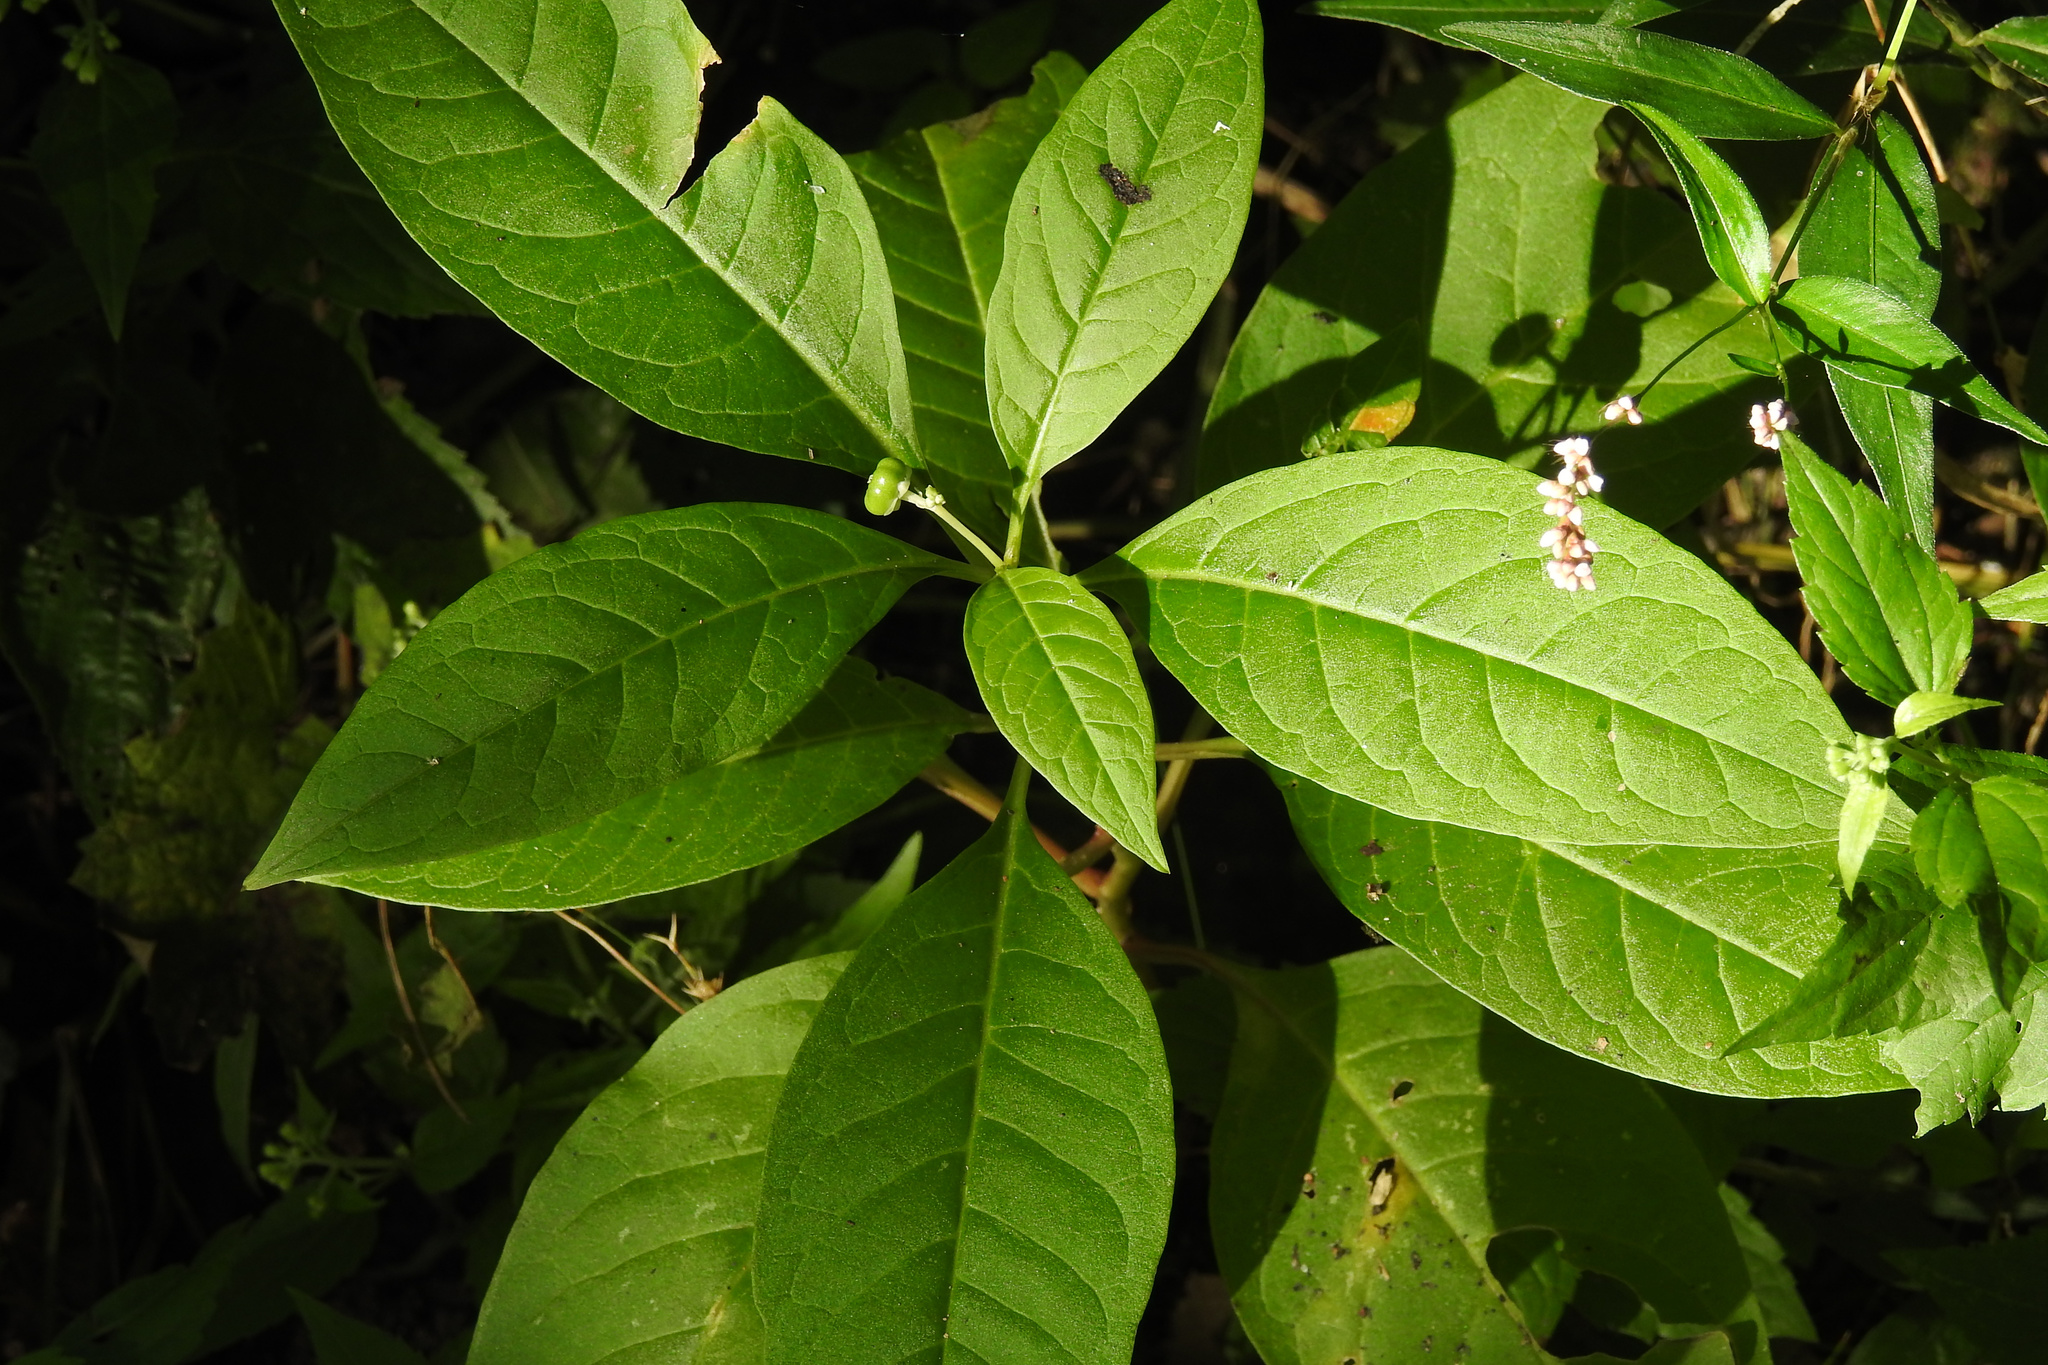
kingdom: Plantae
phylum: Tracheophyta
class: Magnoliopsida
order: Caryophyllales
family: Phytolaccaceae
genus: Phytolacca
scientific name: Phytolacca americana
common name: American pokeweed
